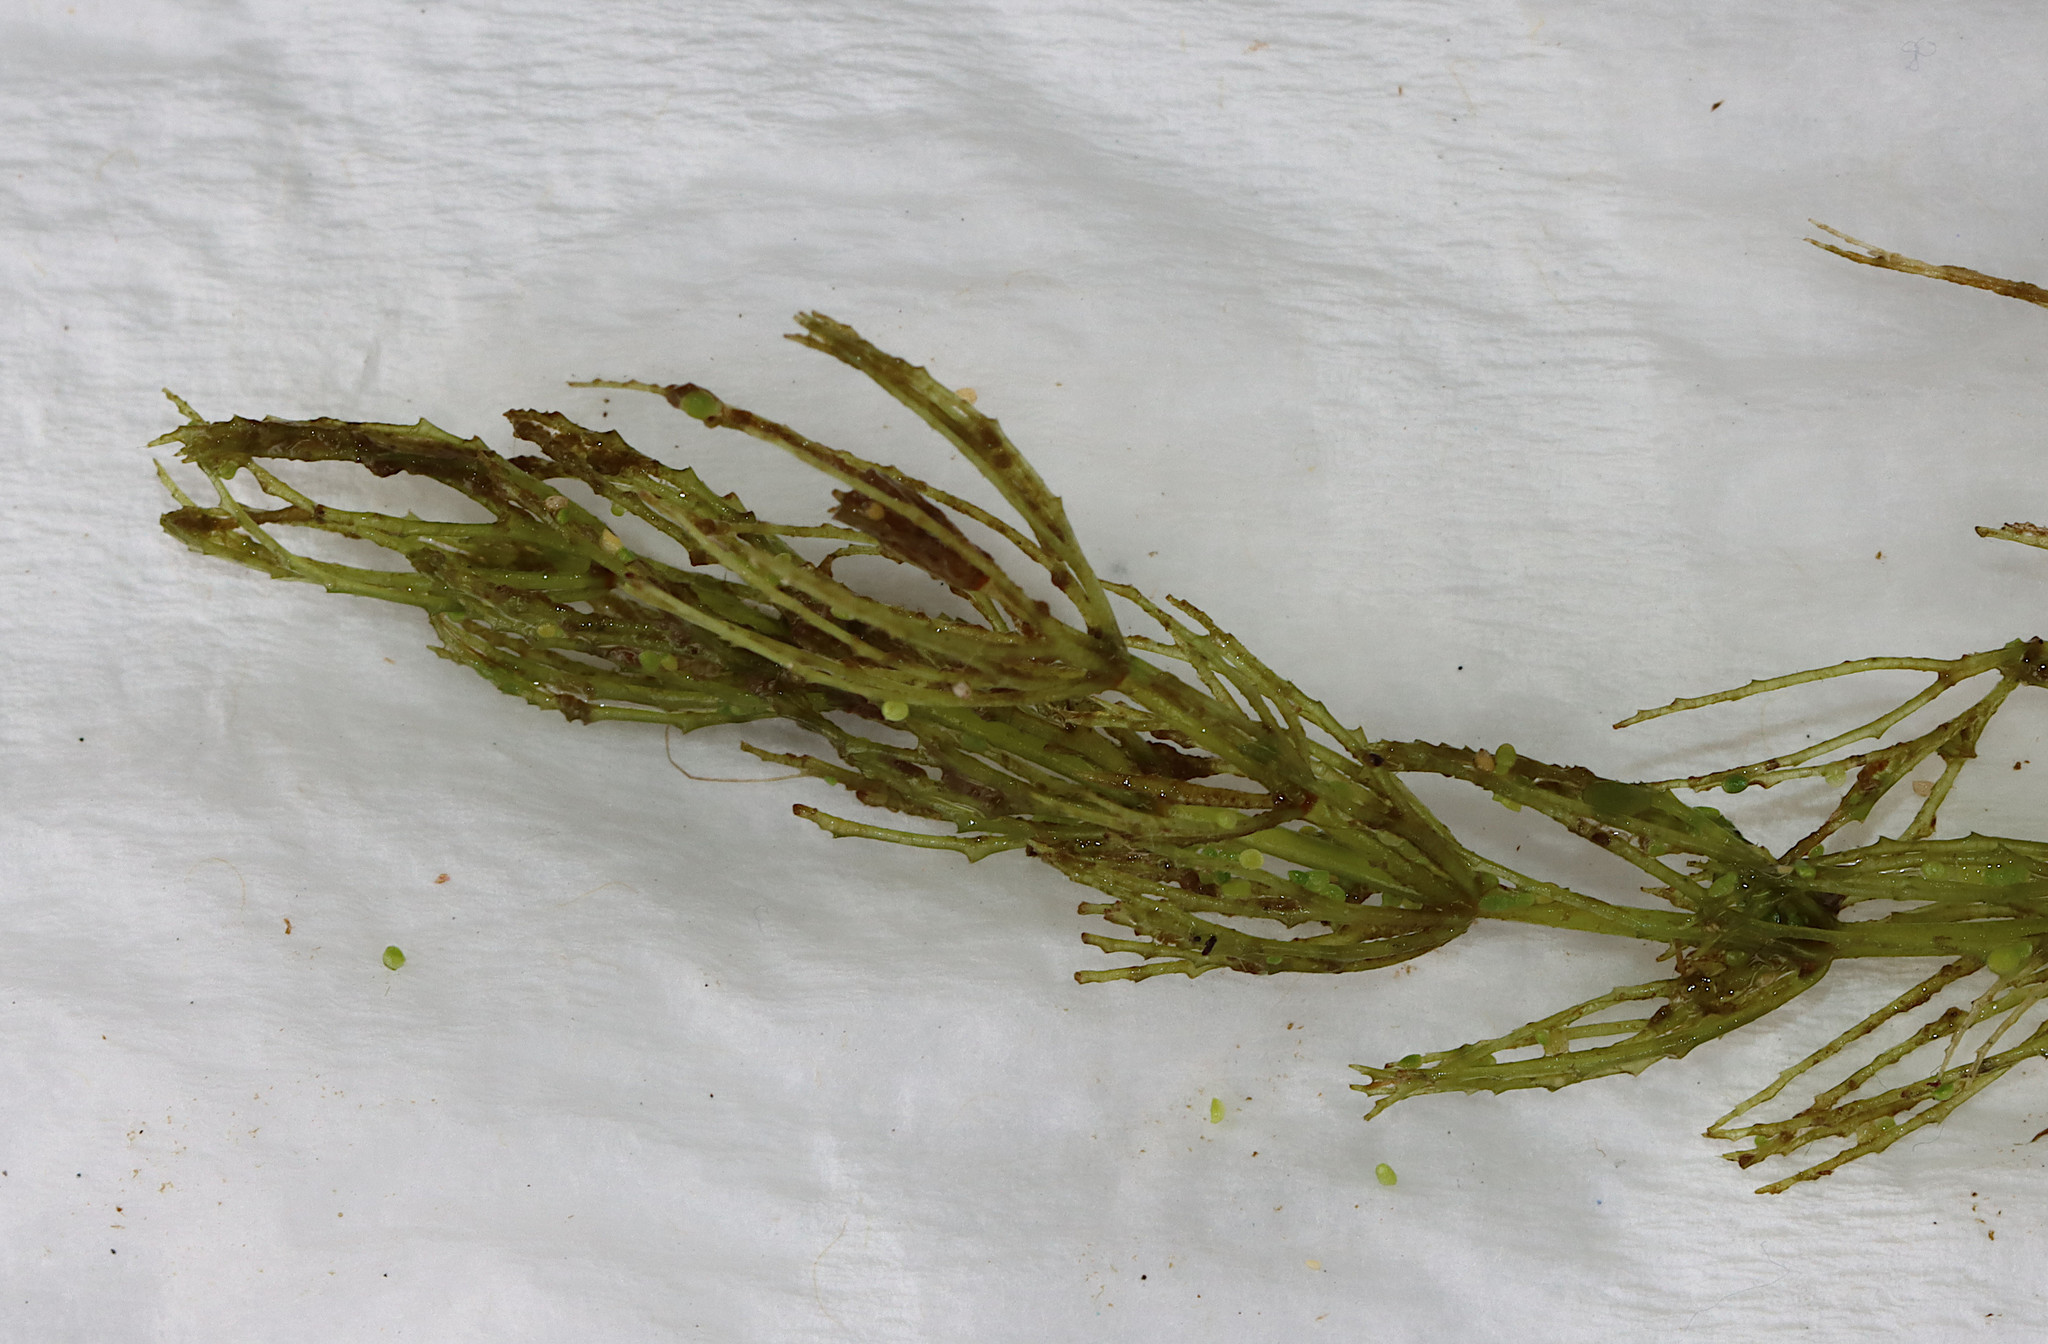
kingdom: Plantae
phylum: Tracheophyta
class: Magnoliopsida
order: Ceratophyllales
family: Ceratophyllaceae
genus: Ceratophyllum
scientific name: Ceratophyllum demersum
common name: Rigid hornwort
